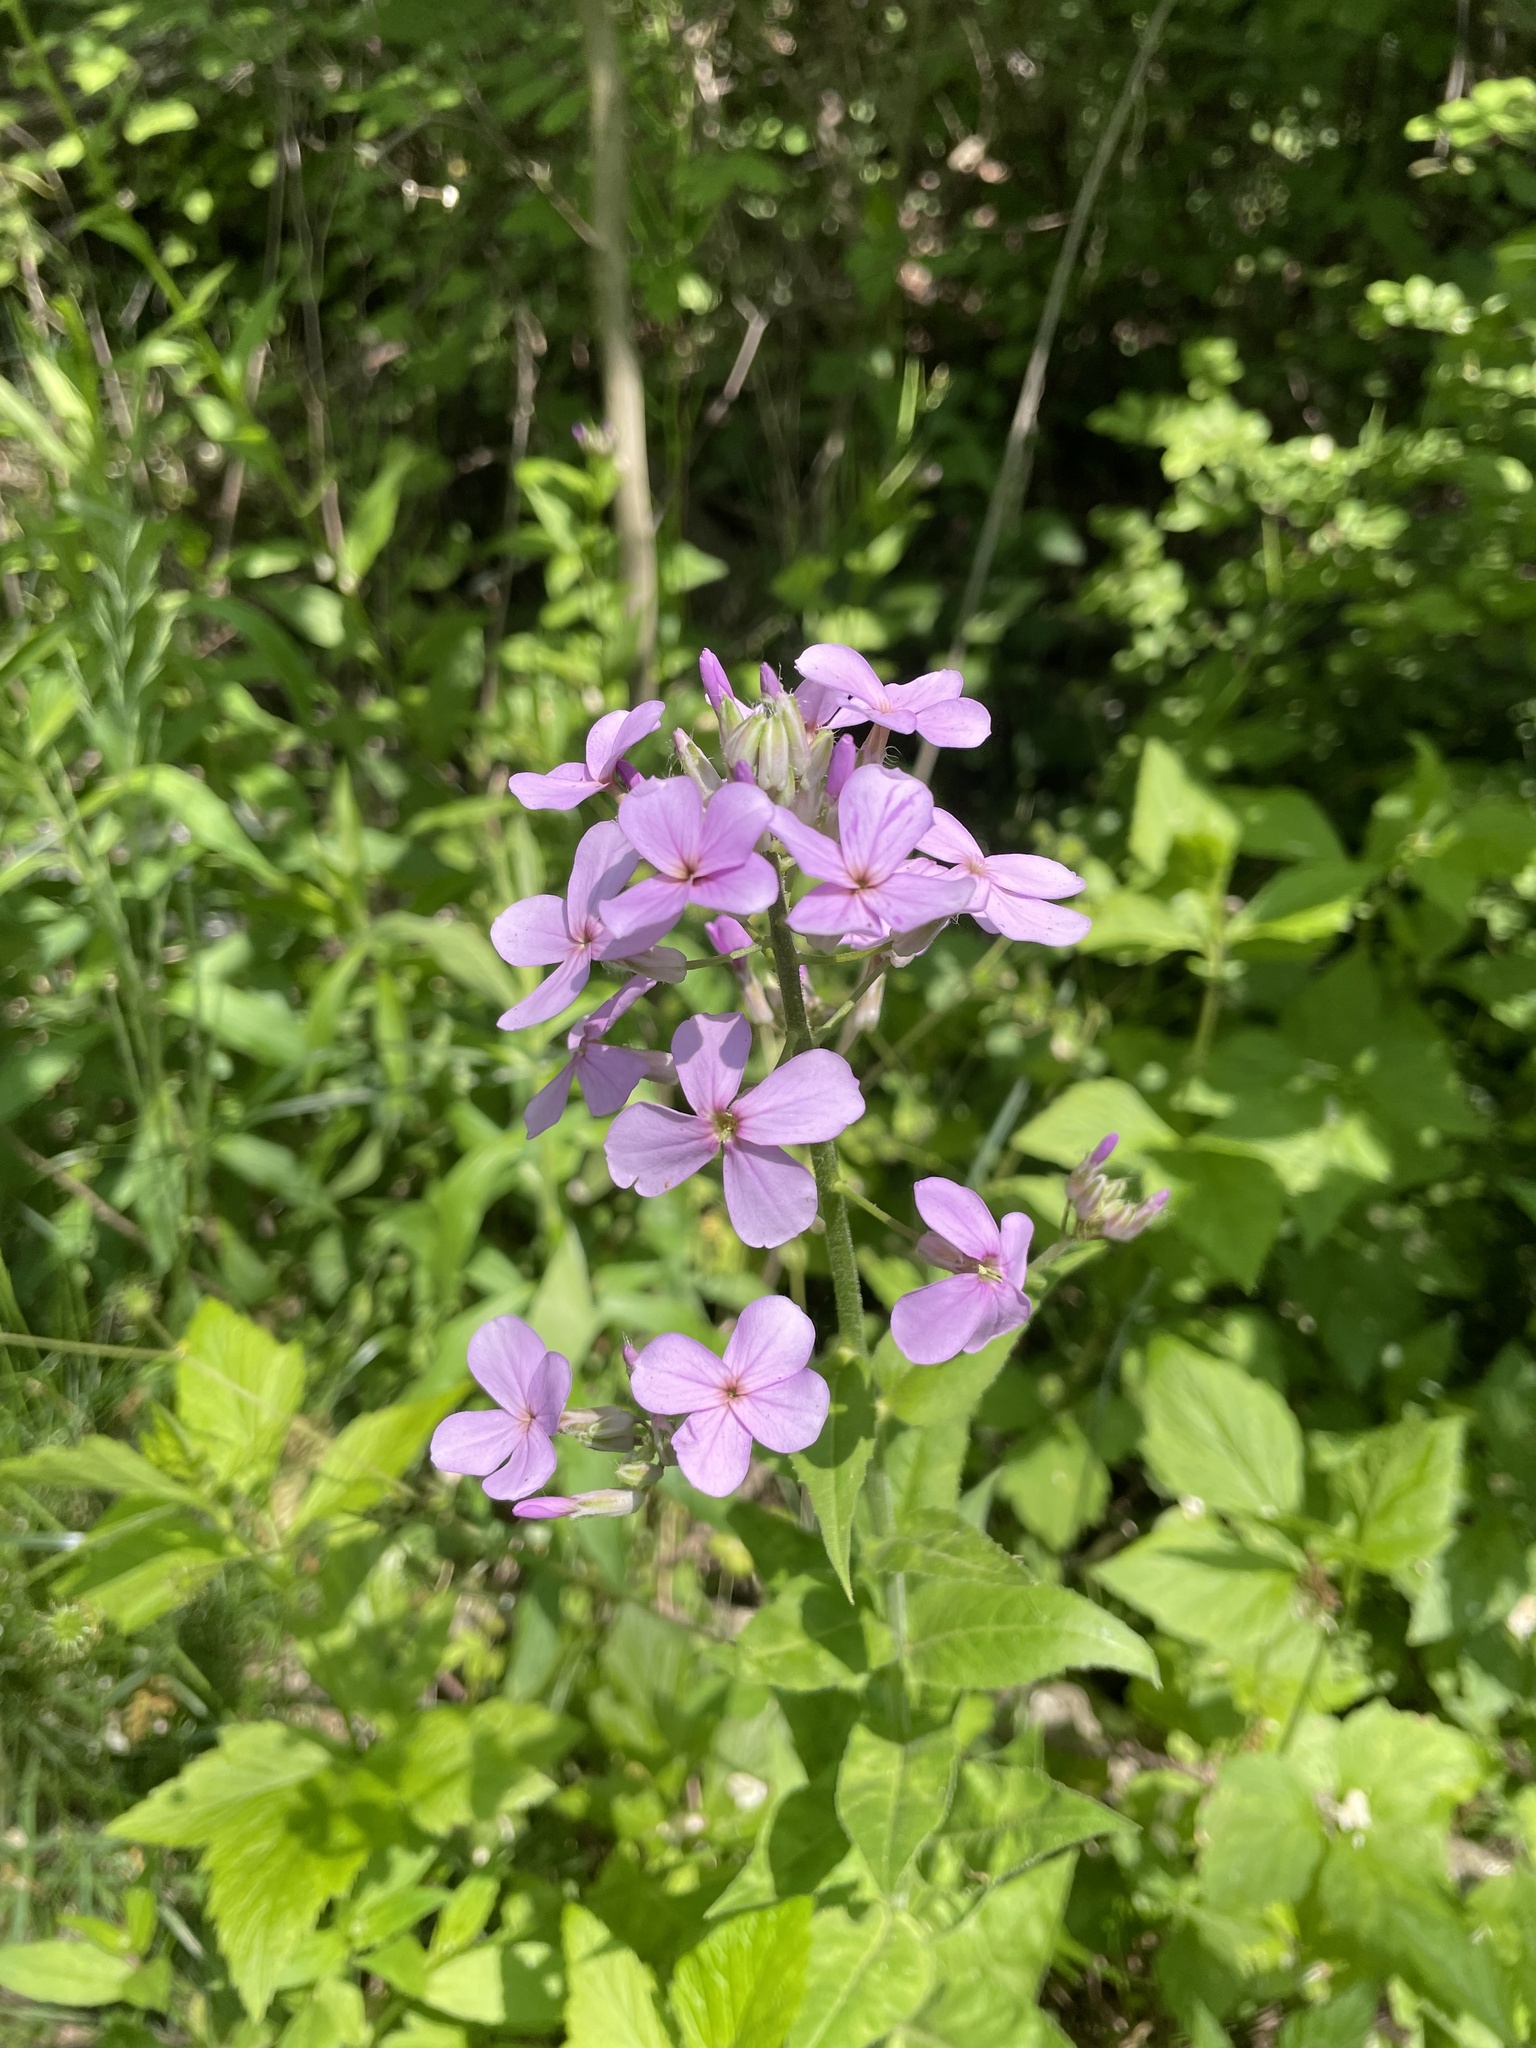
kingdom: Plantae
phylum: Tracheophyta
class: Magnoliopsida
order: Brassicales
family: Brassicaceae
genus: Hesperis
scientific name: Hesperis matronalis
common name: Dame's-violet
